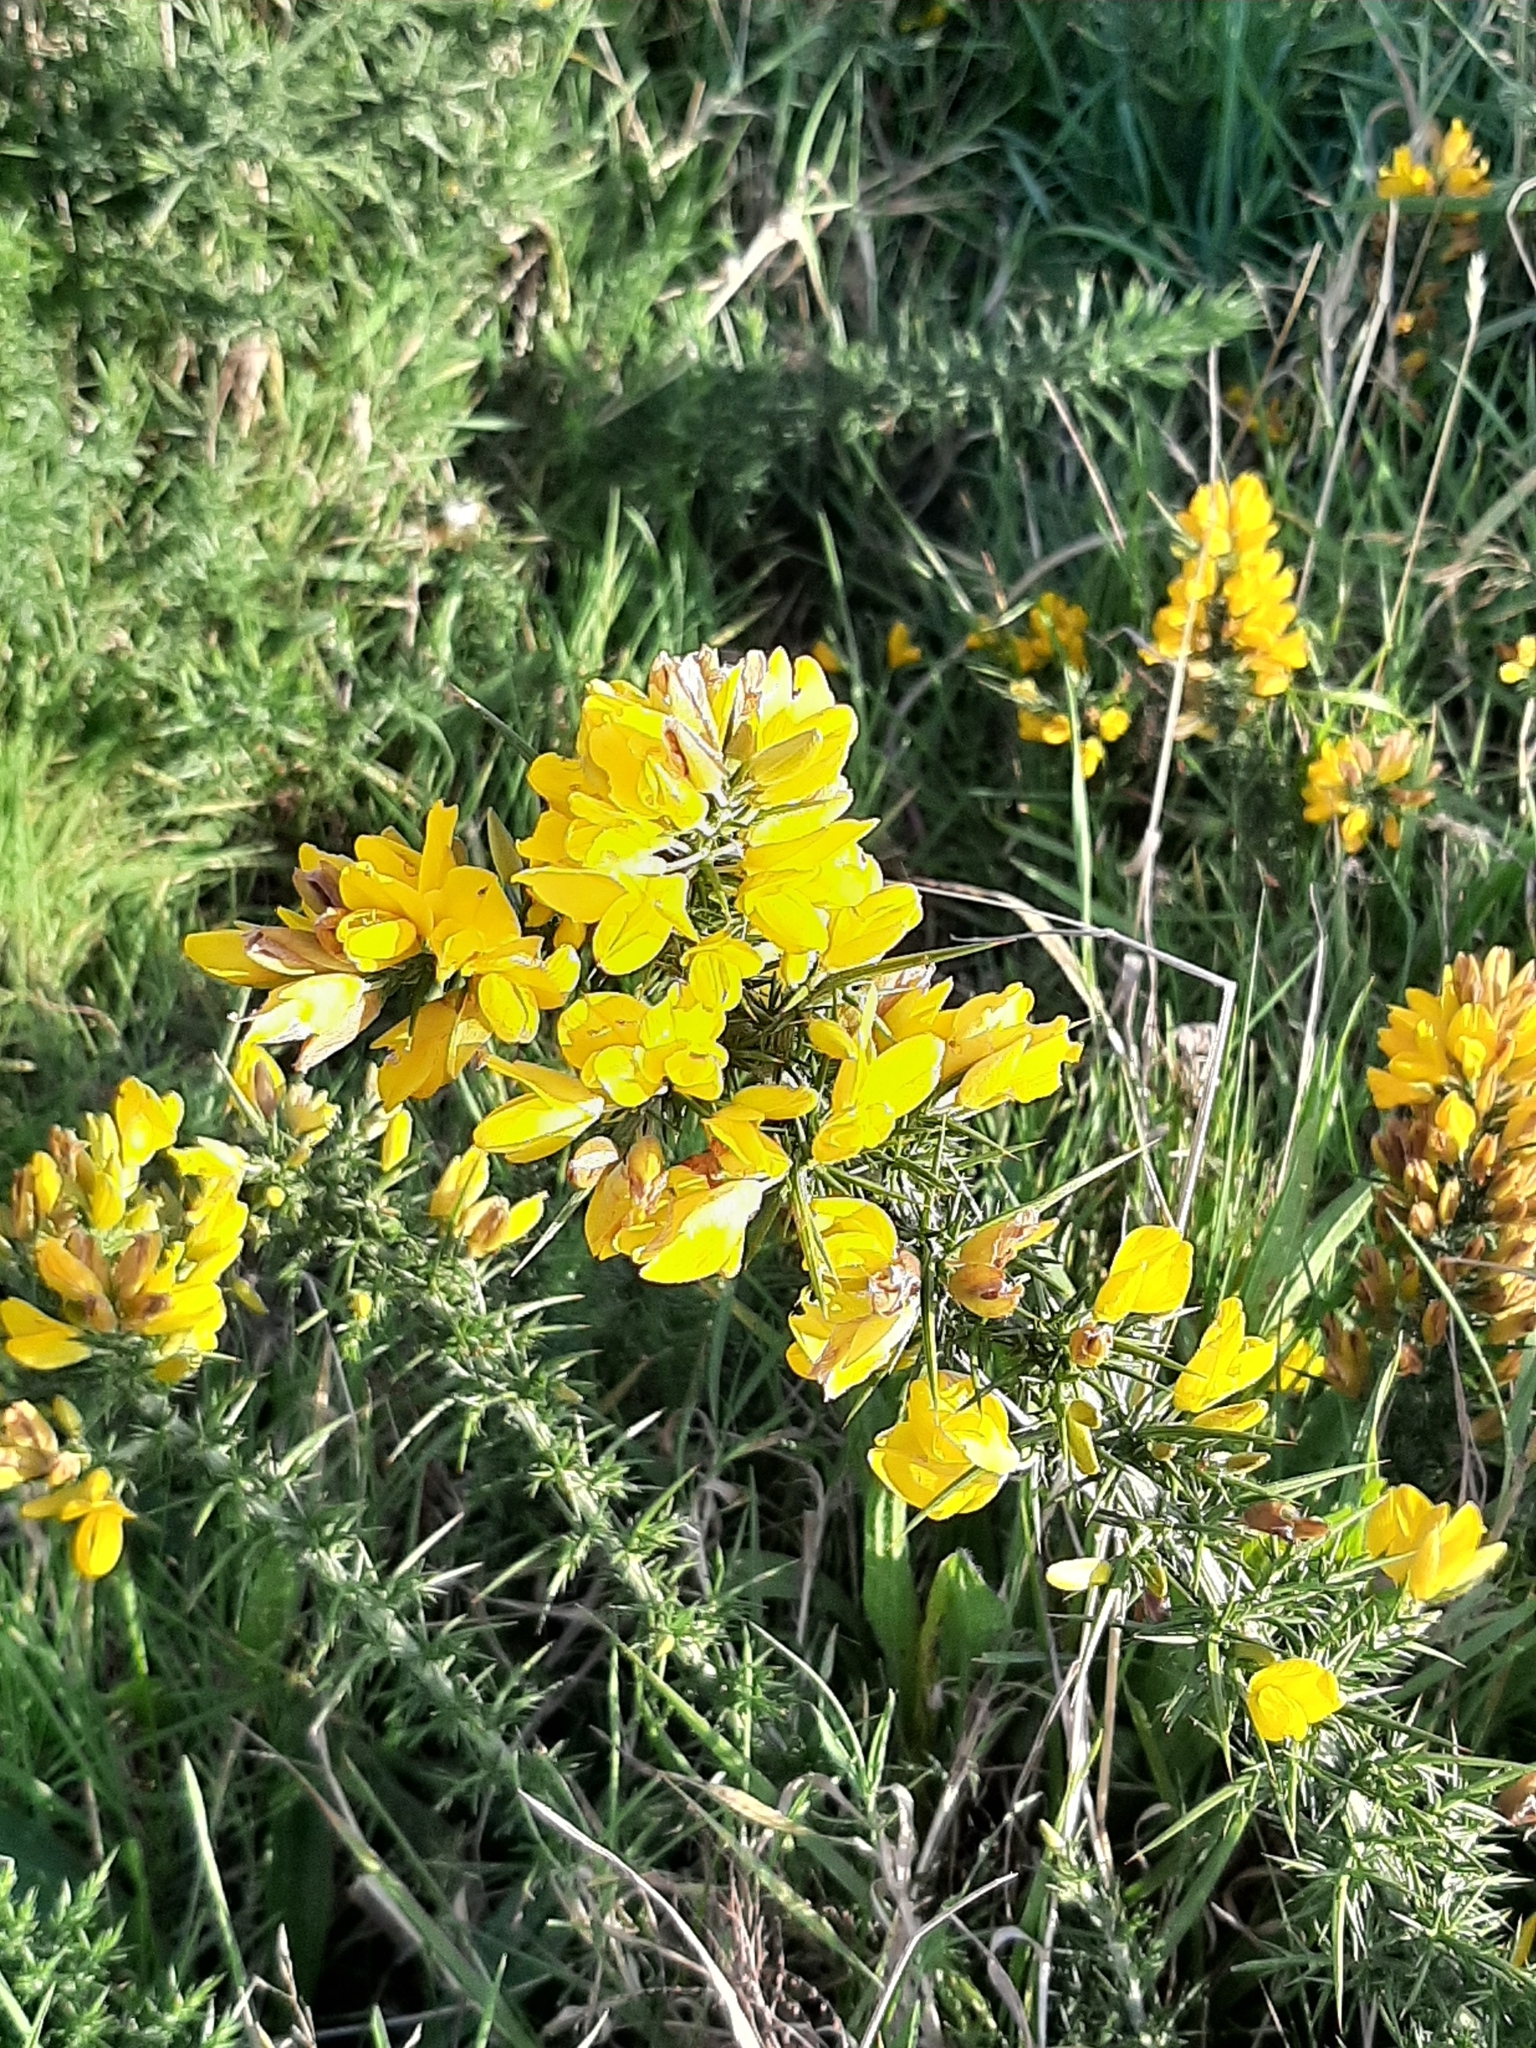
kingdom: Plantae
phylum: Tracheophyta
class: Magnoliopsida
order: Fabales
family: Fabaceae
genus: Ulex
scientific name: Ulex europaeus
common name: Common gorse
